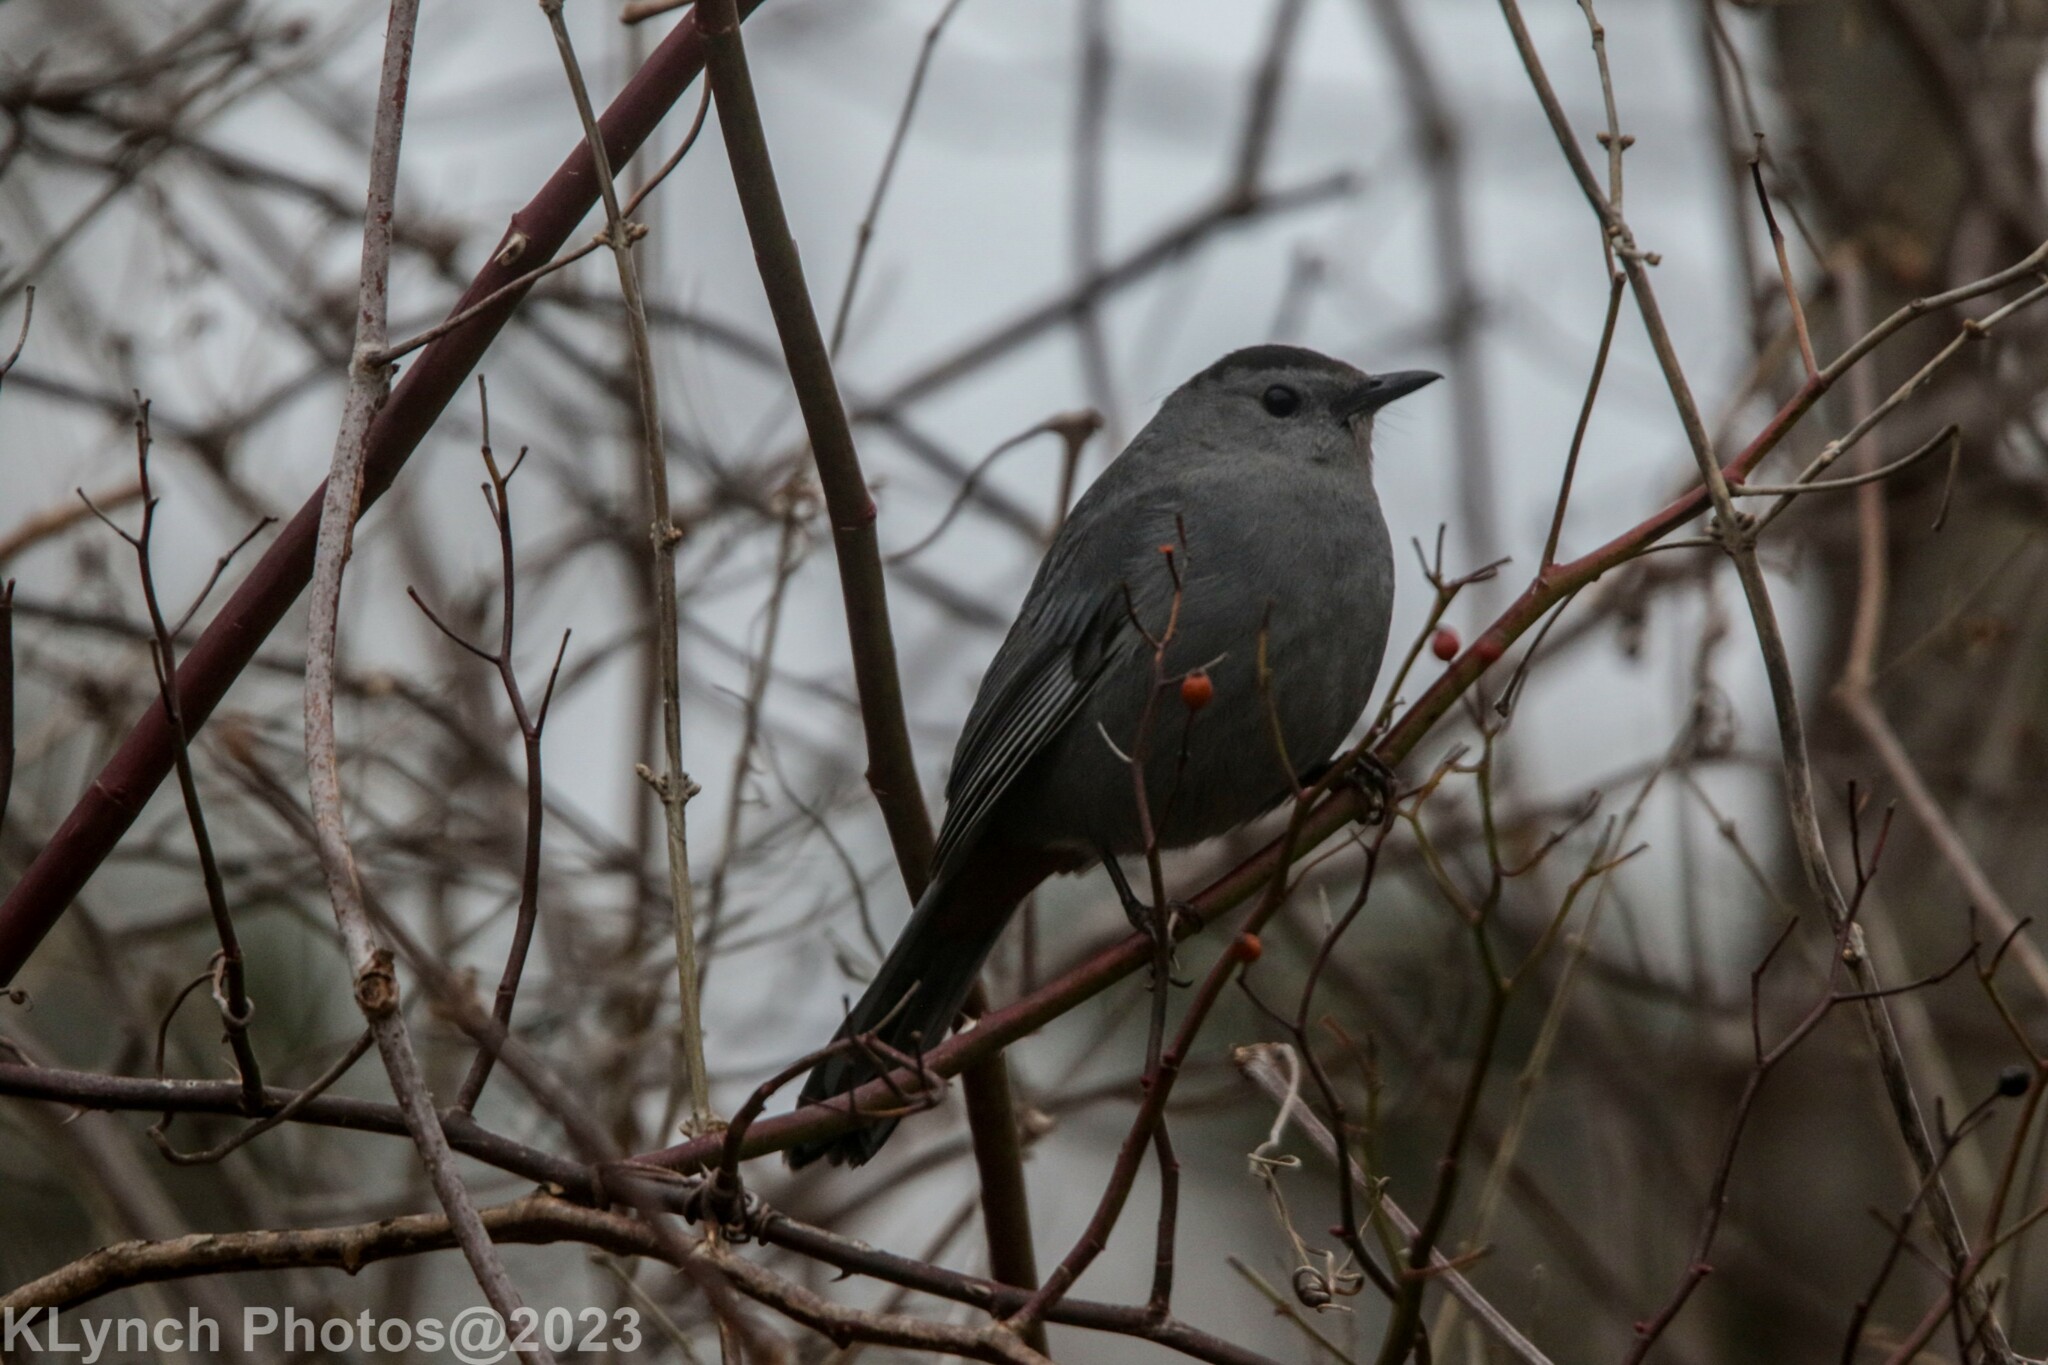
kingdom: Animalia
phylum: Chordata
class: Aves
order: Passeriformes
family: Mimidae
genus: Dumetella
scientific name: Dumetella carolinensis
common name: Gray catbird
